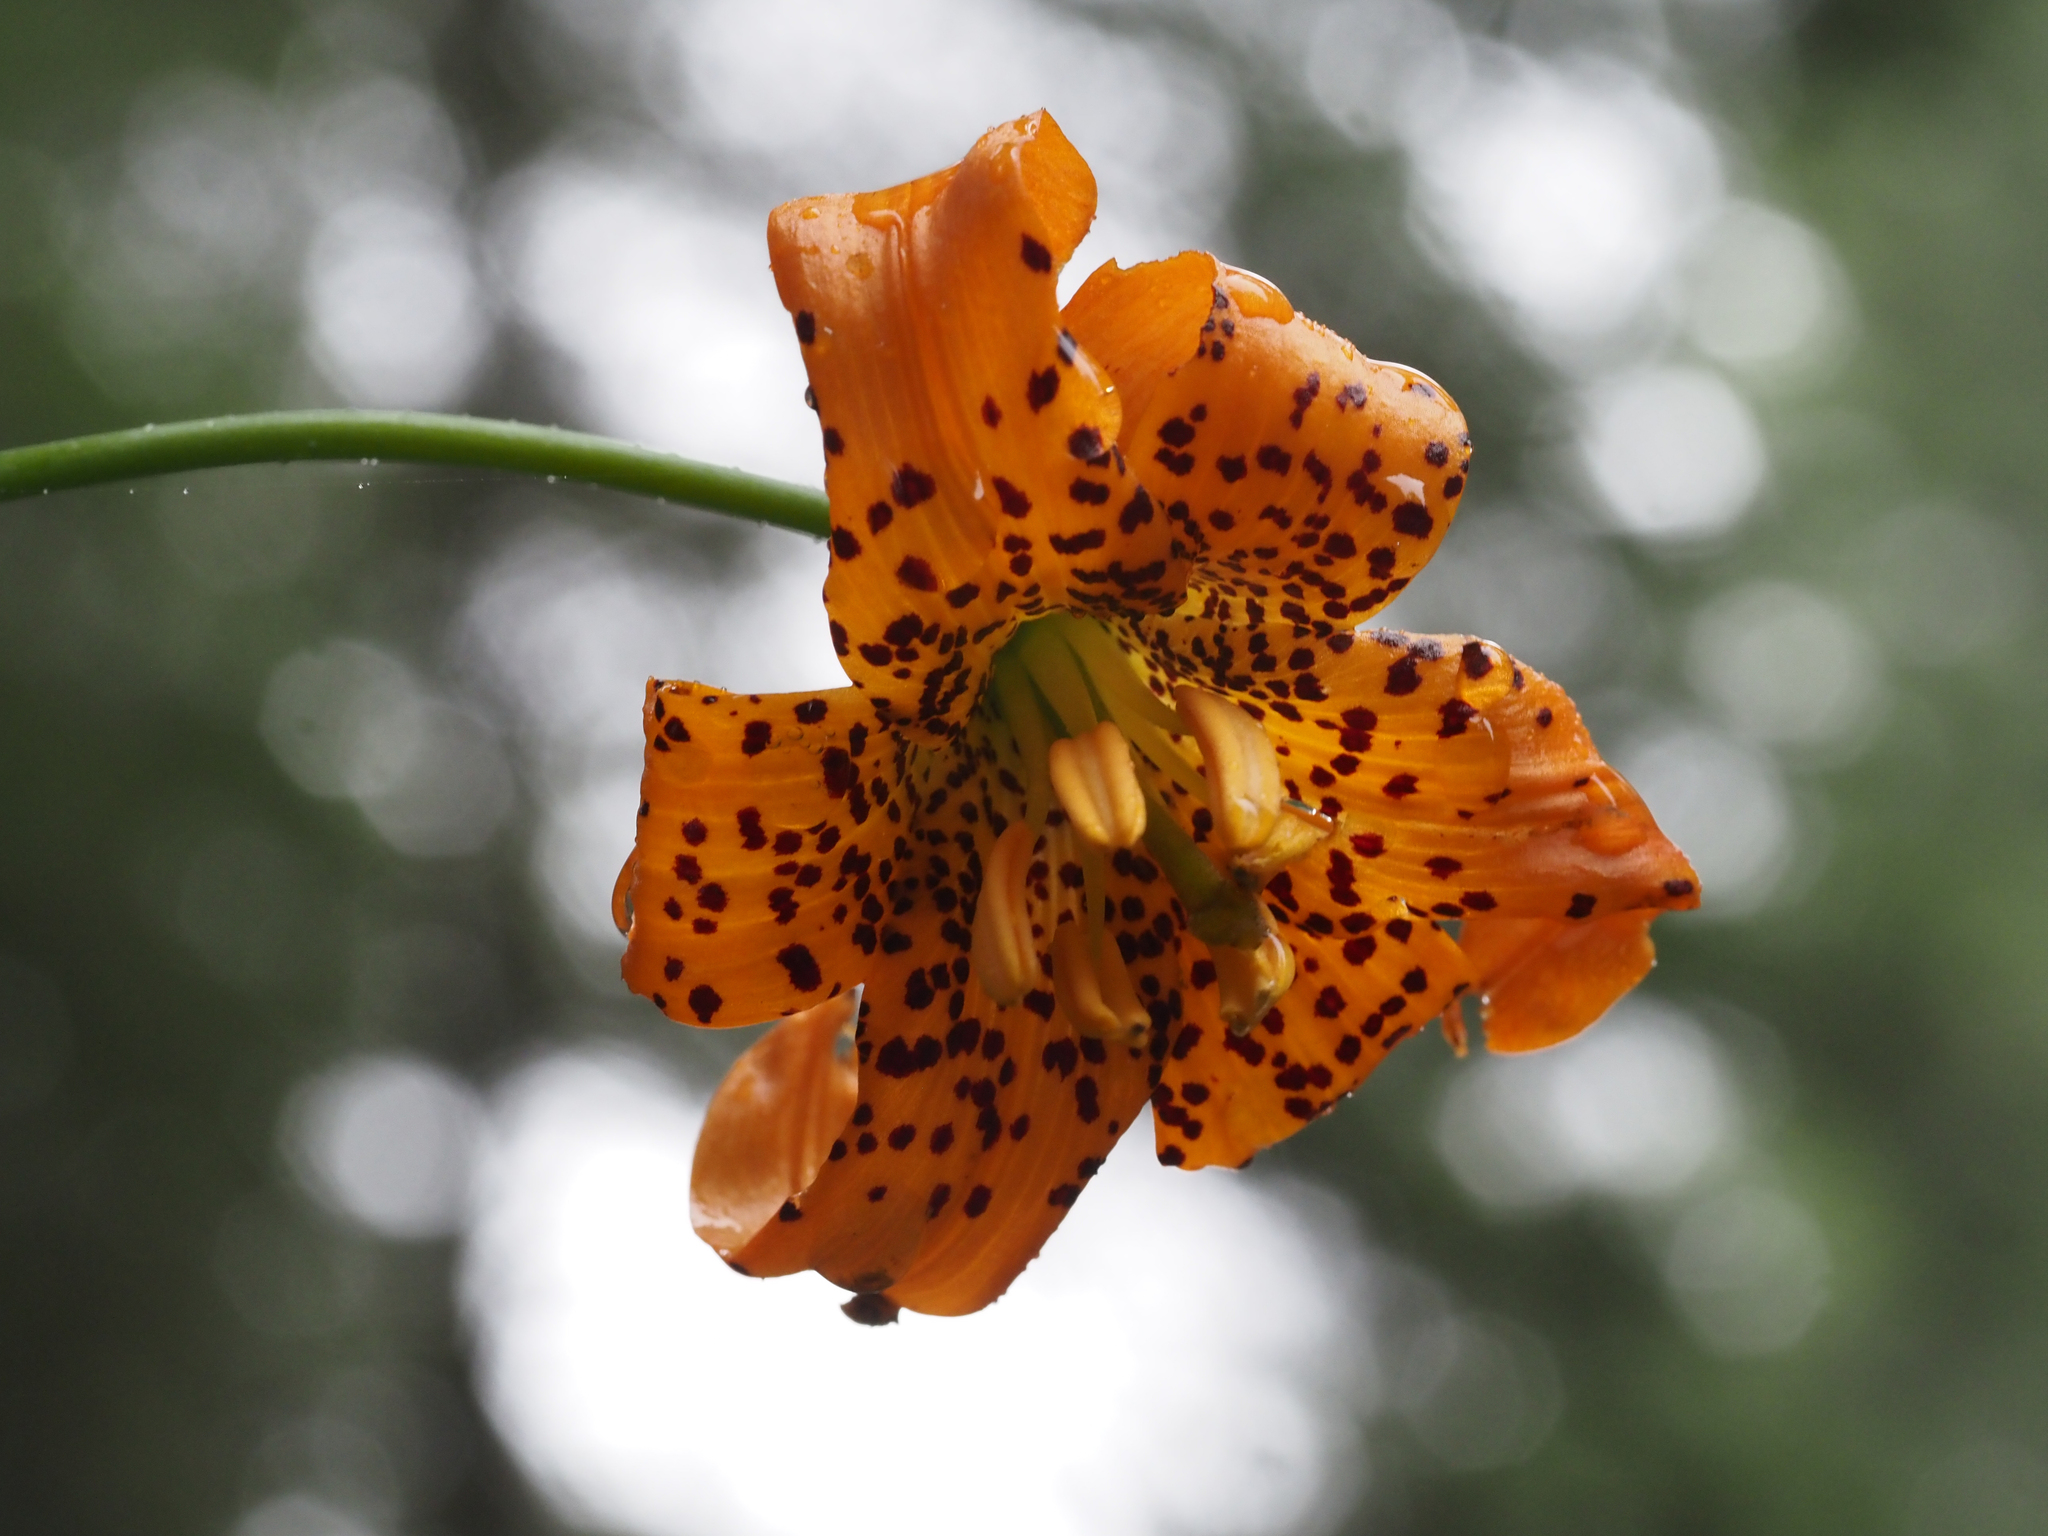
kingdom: Plantae
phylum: Tracheophyta
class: Liliopsida
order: Liliales
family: Liliaceae
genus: Lilium
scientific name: Lilium columbianum
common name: Columbia lily
